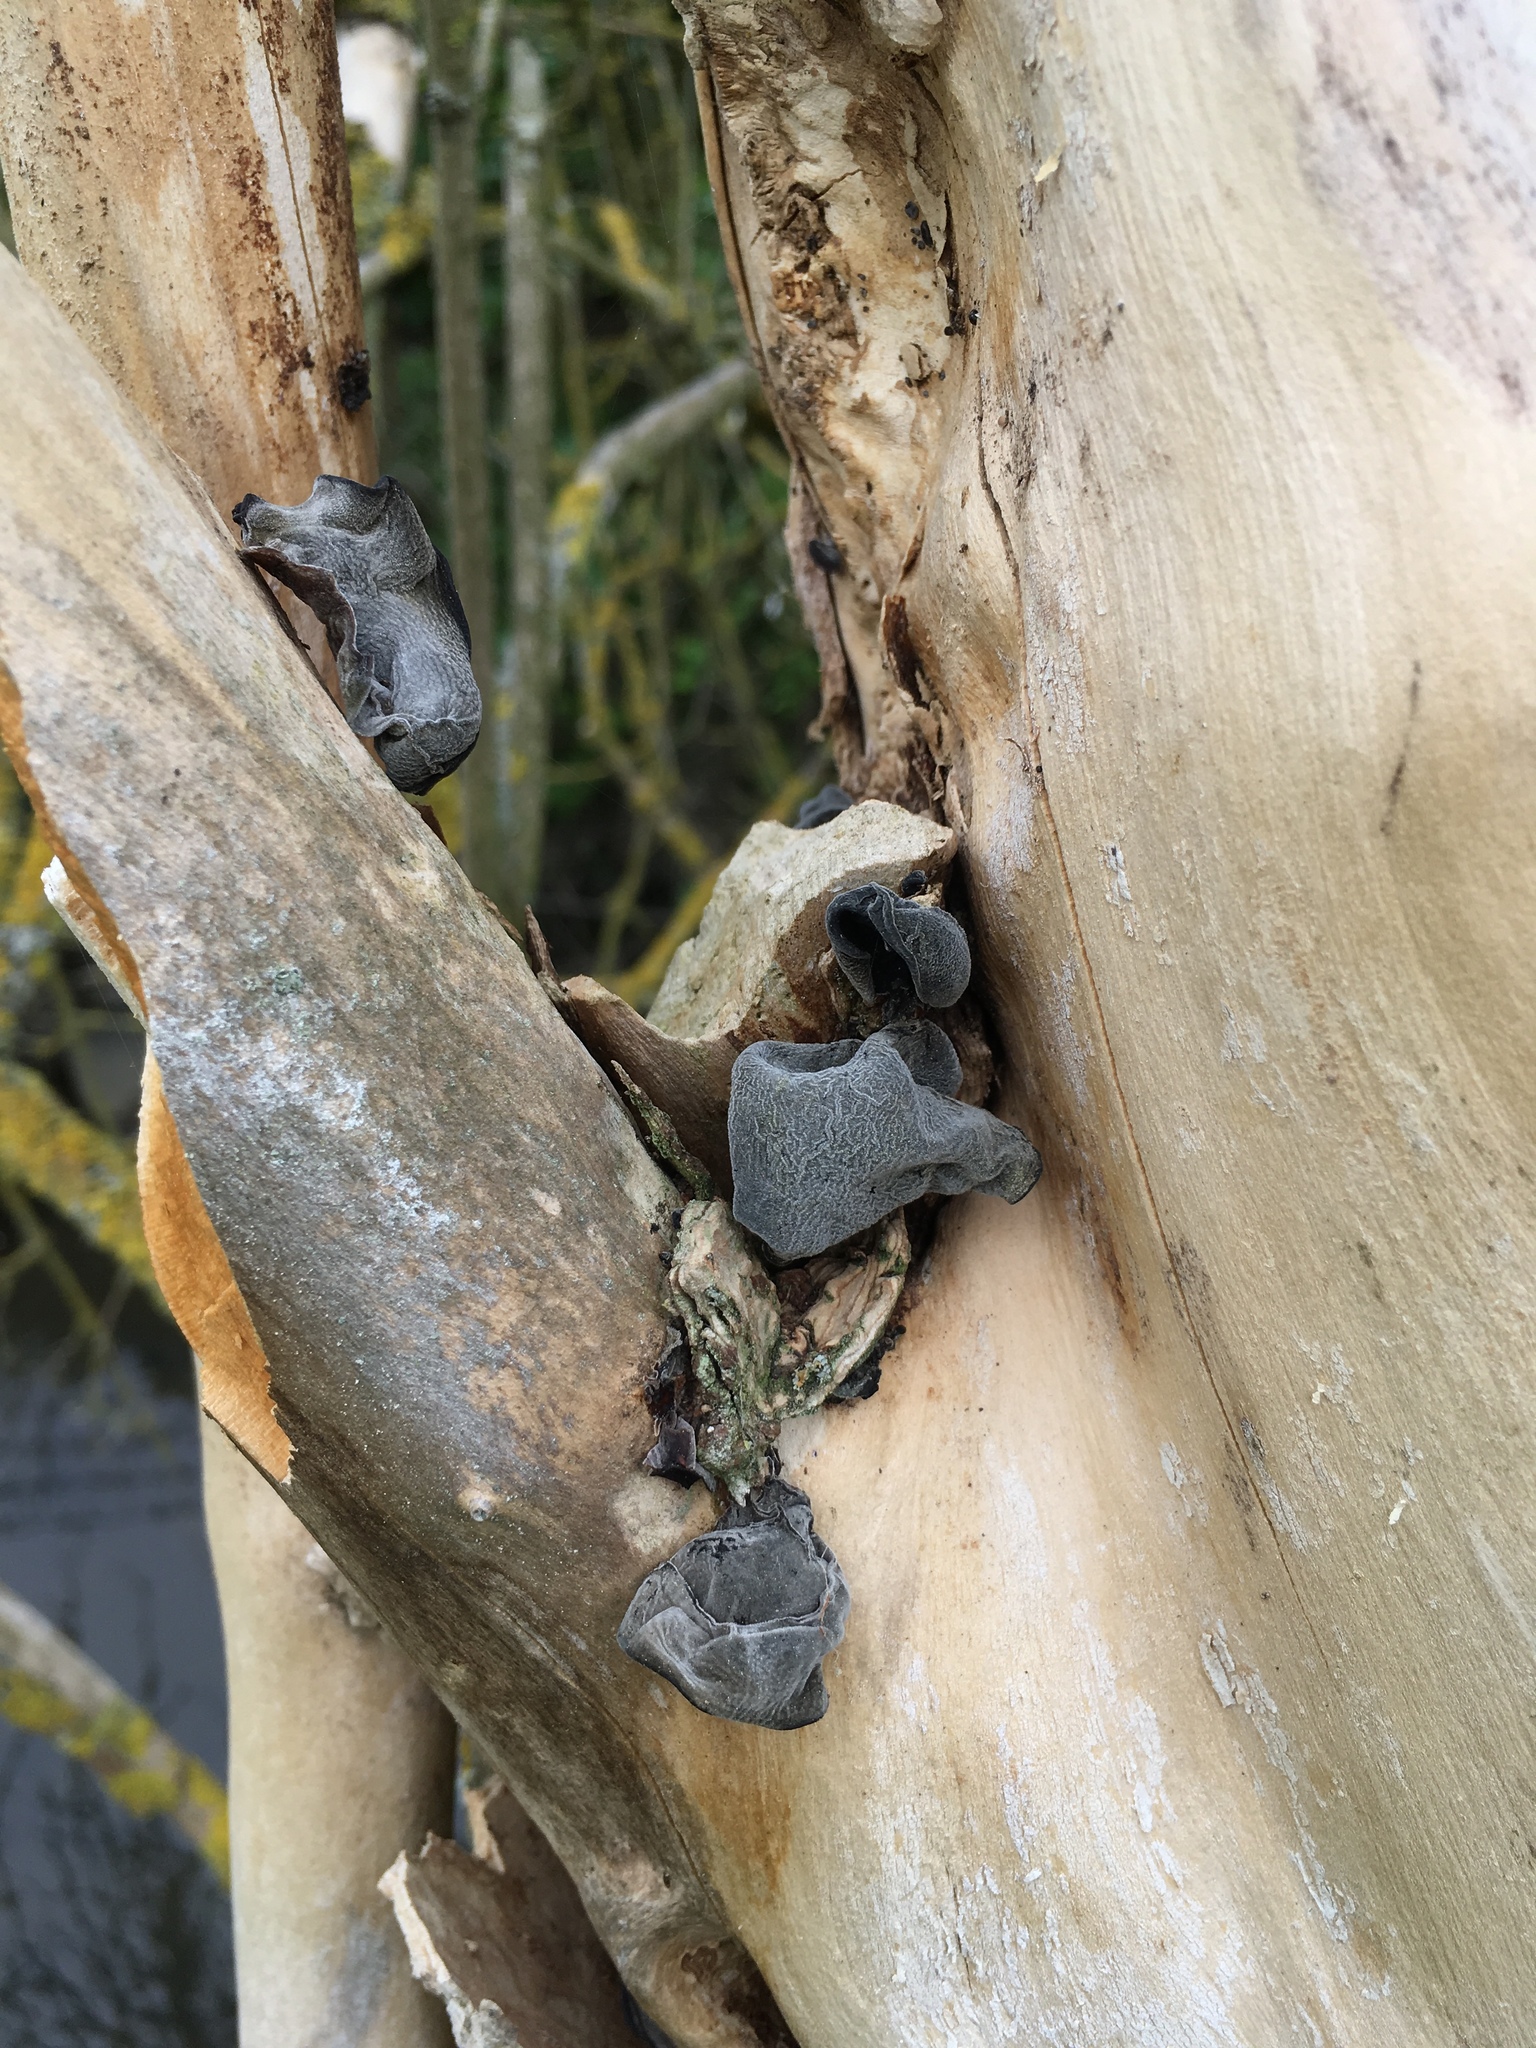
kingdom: Fungi
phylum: Basidiomycota
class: Agaricomycetes
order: Auriculariales
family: Auriculariaceae
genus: Auricularia
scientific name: Auricularia auricula-judae
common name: Jelly ear
